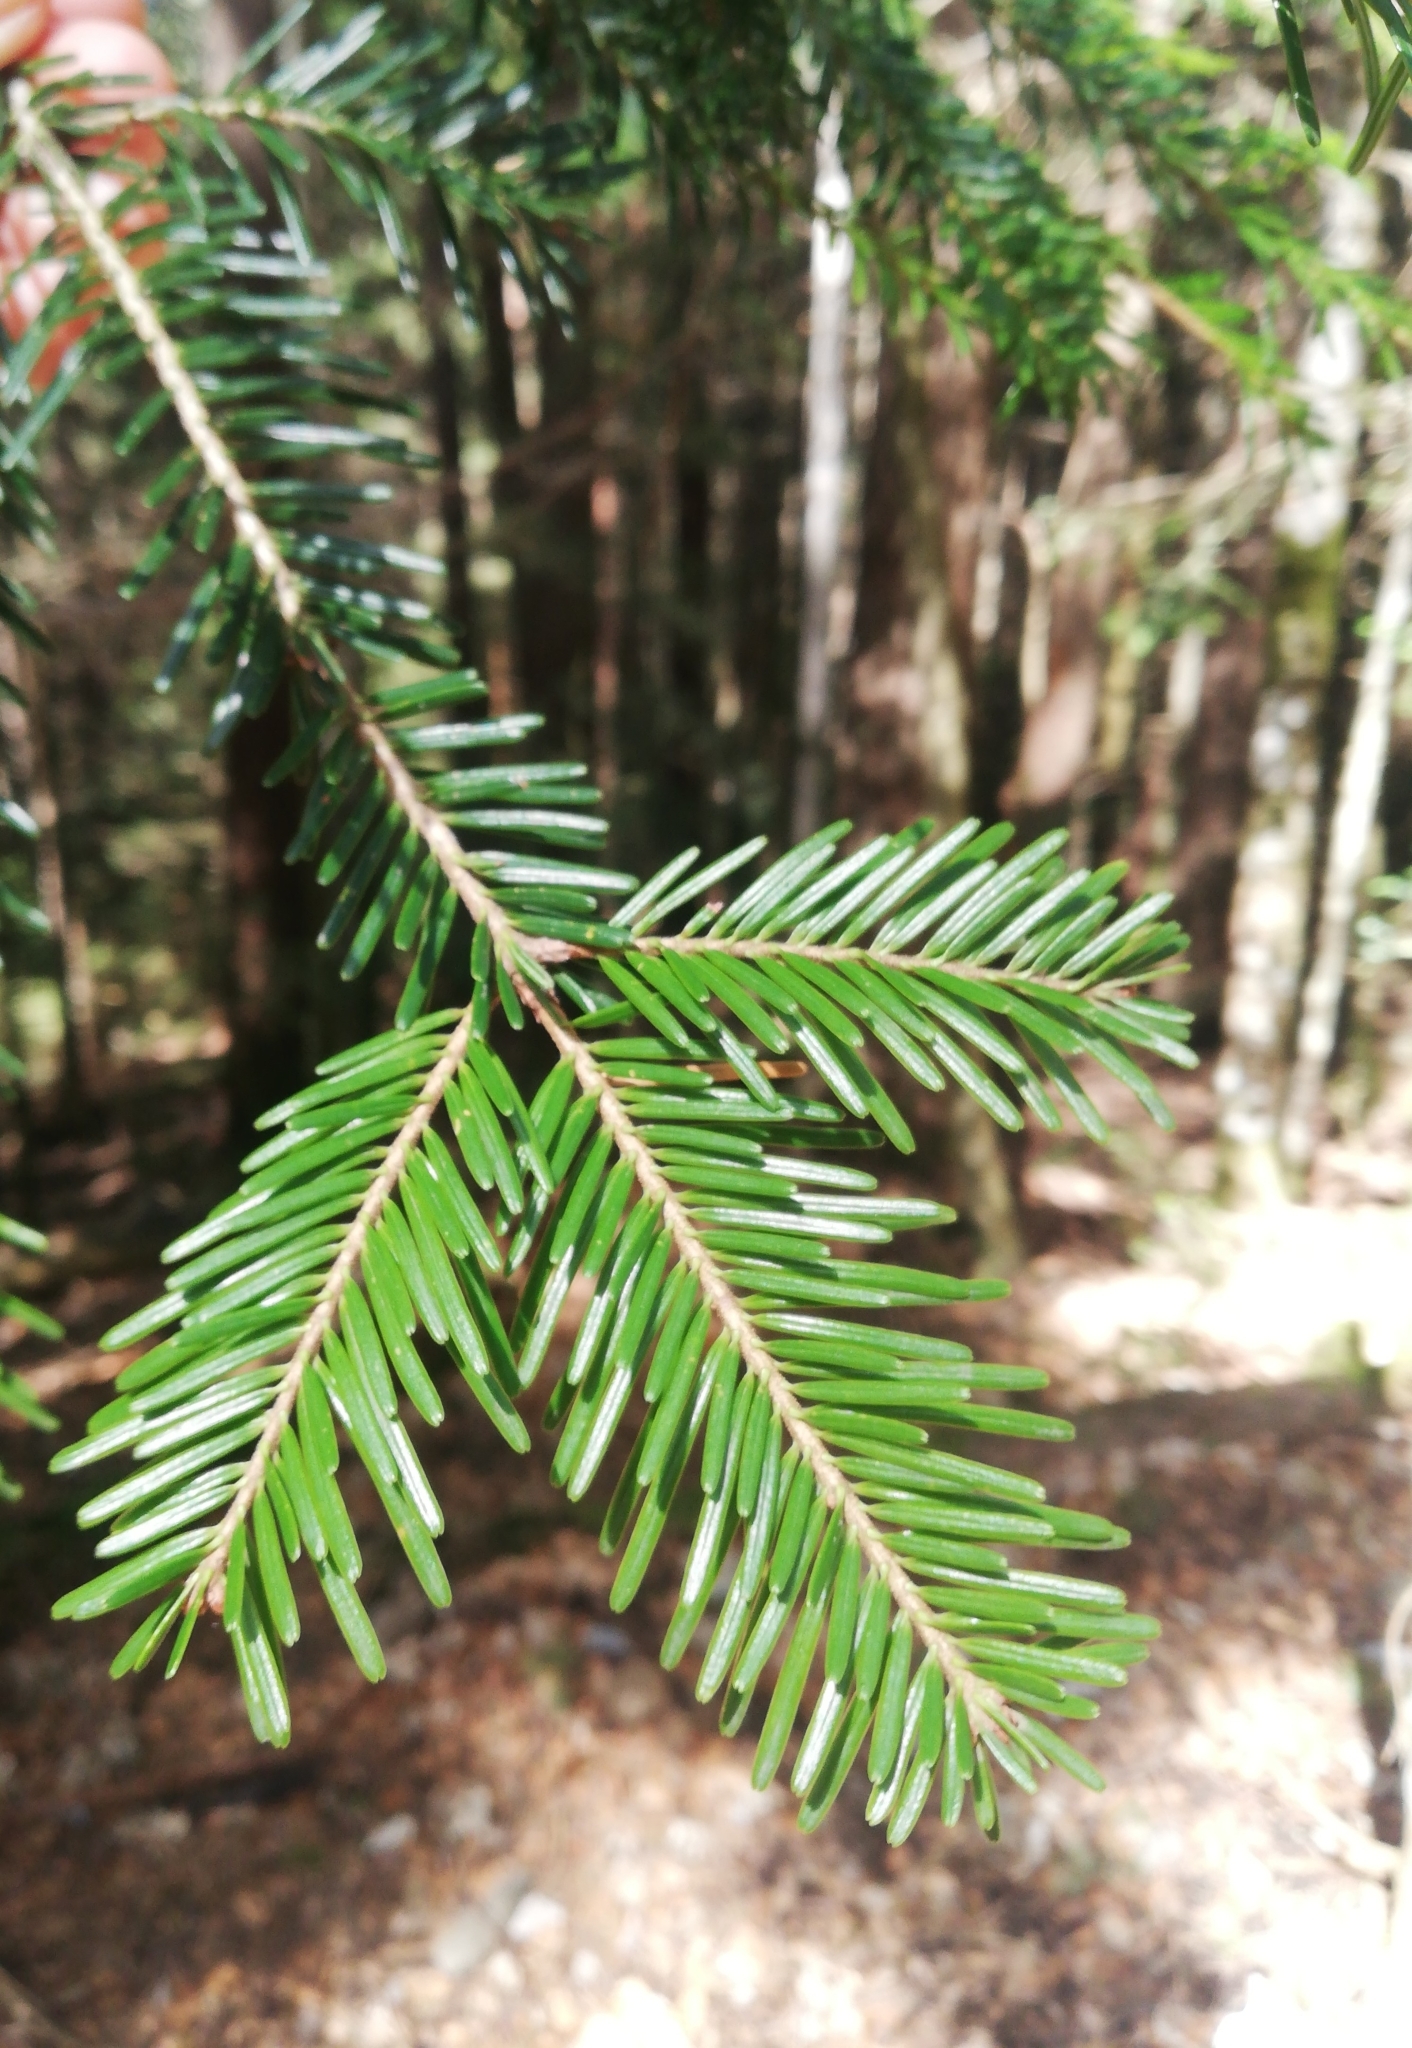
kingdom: Plantae
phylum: Tracheophyta
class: Pinopsida
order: Pinales
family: Pinaceae
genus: Abies
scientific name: Abies alba
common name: Silver fir
